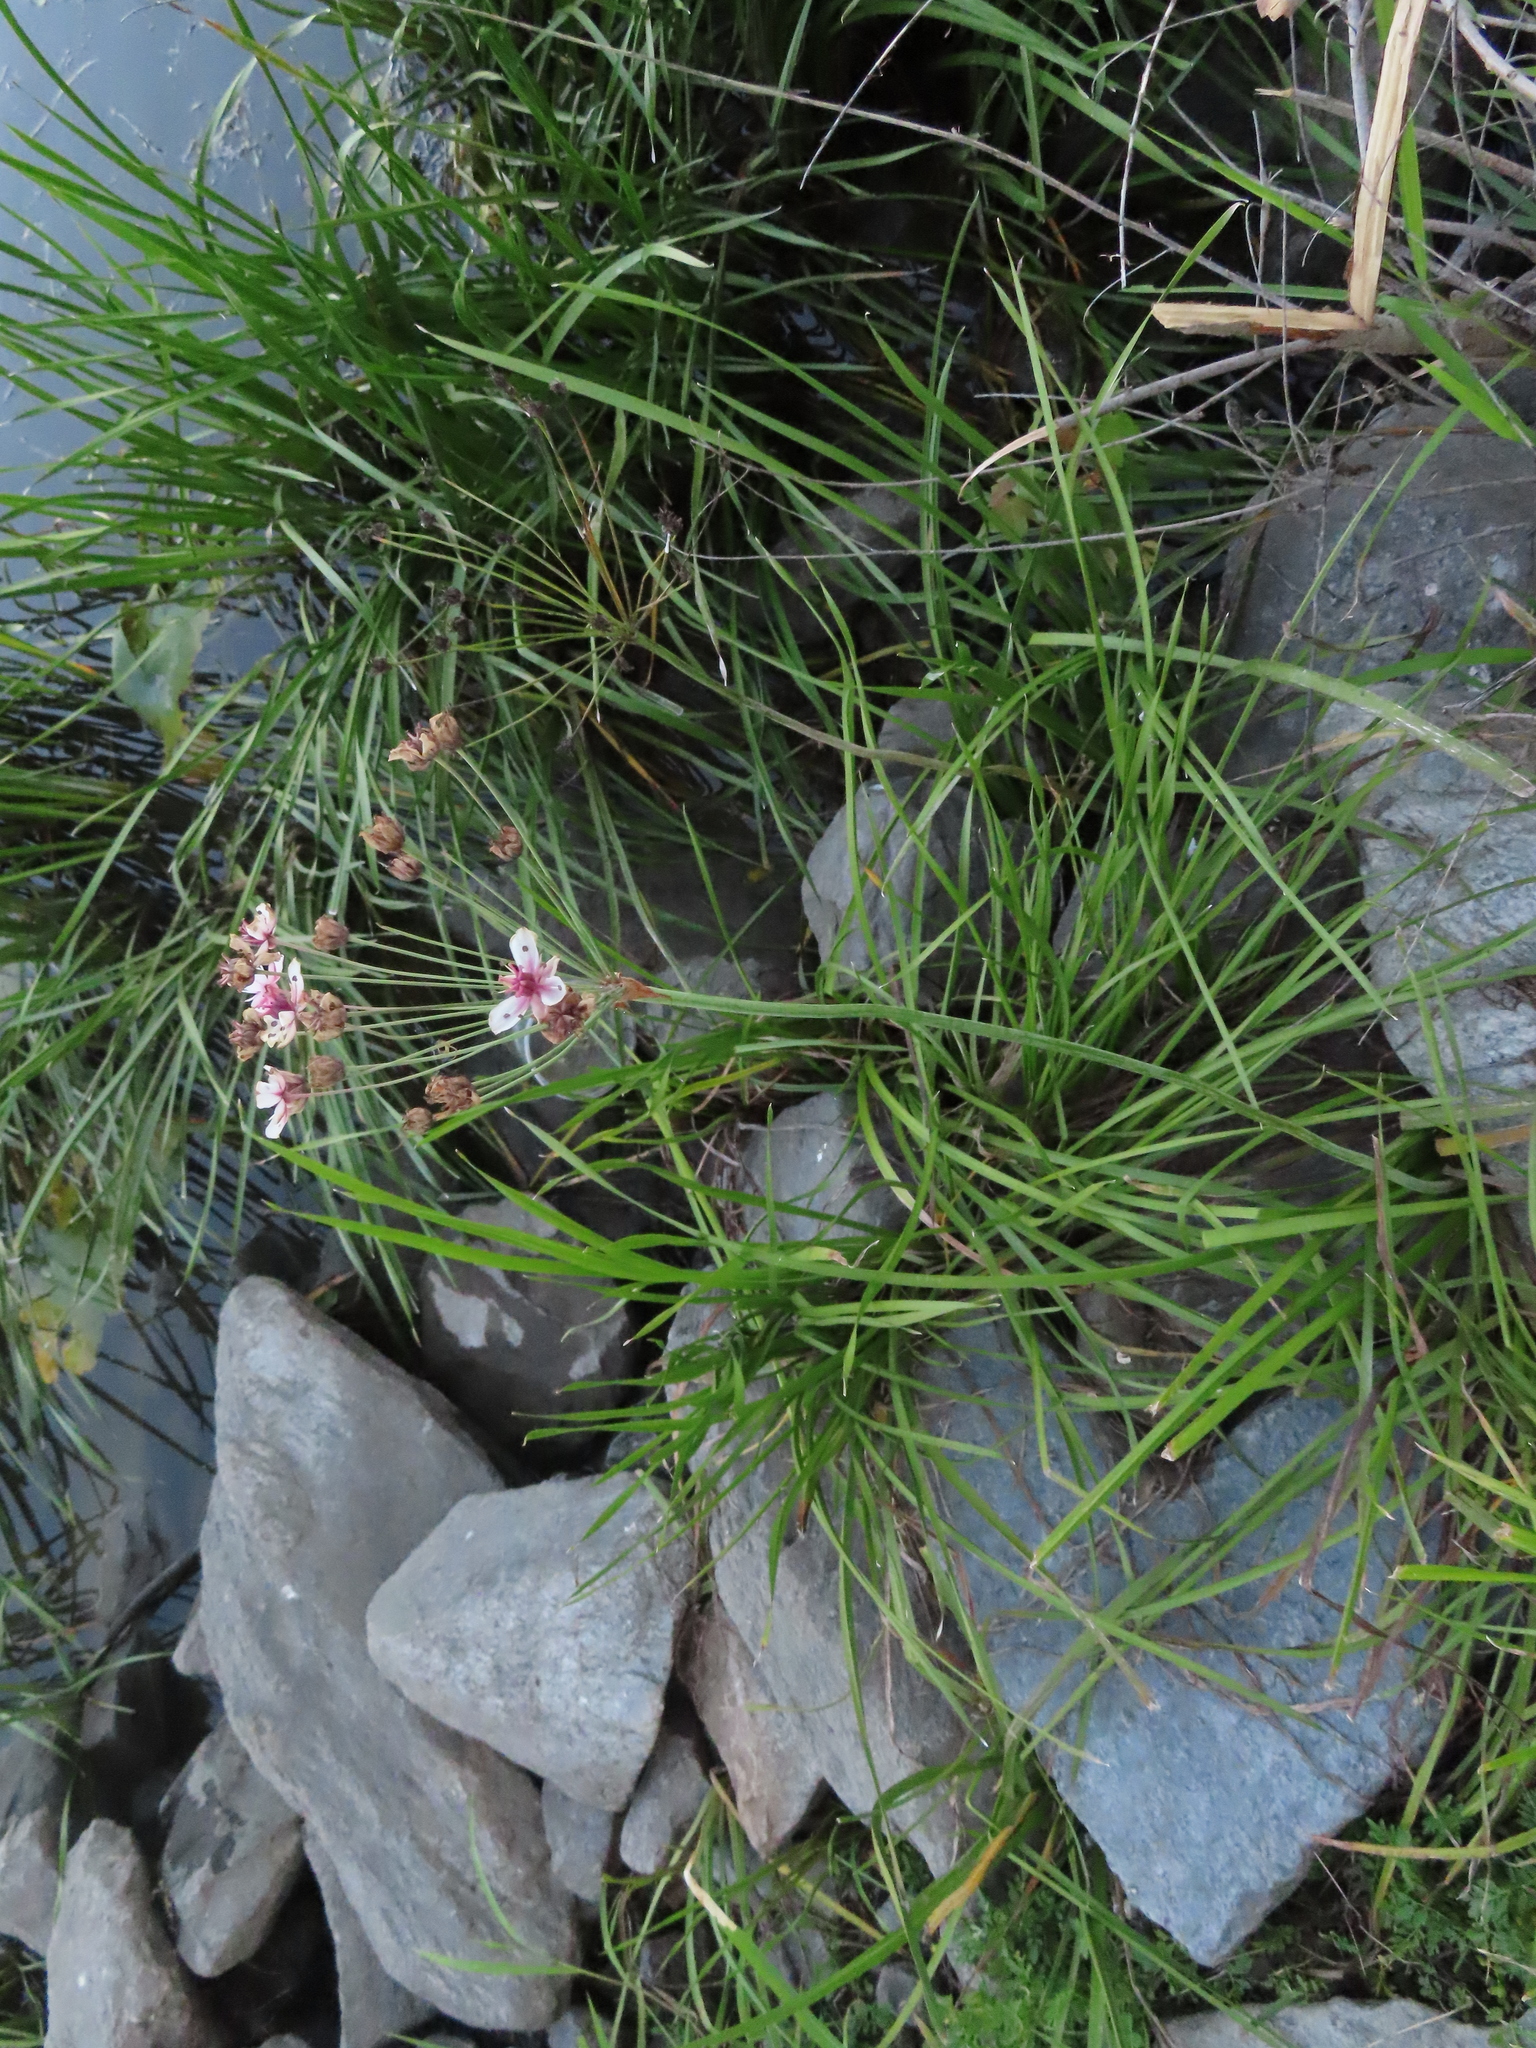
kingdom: Plantae
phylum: Tracheophyta
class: Liliopsida
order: Alismatales
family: Butomaceae
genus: Butomus
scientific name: Butomus umbellatus
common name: Flowering-rush
